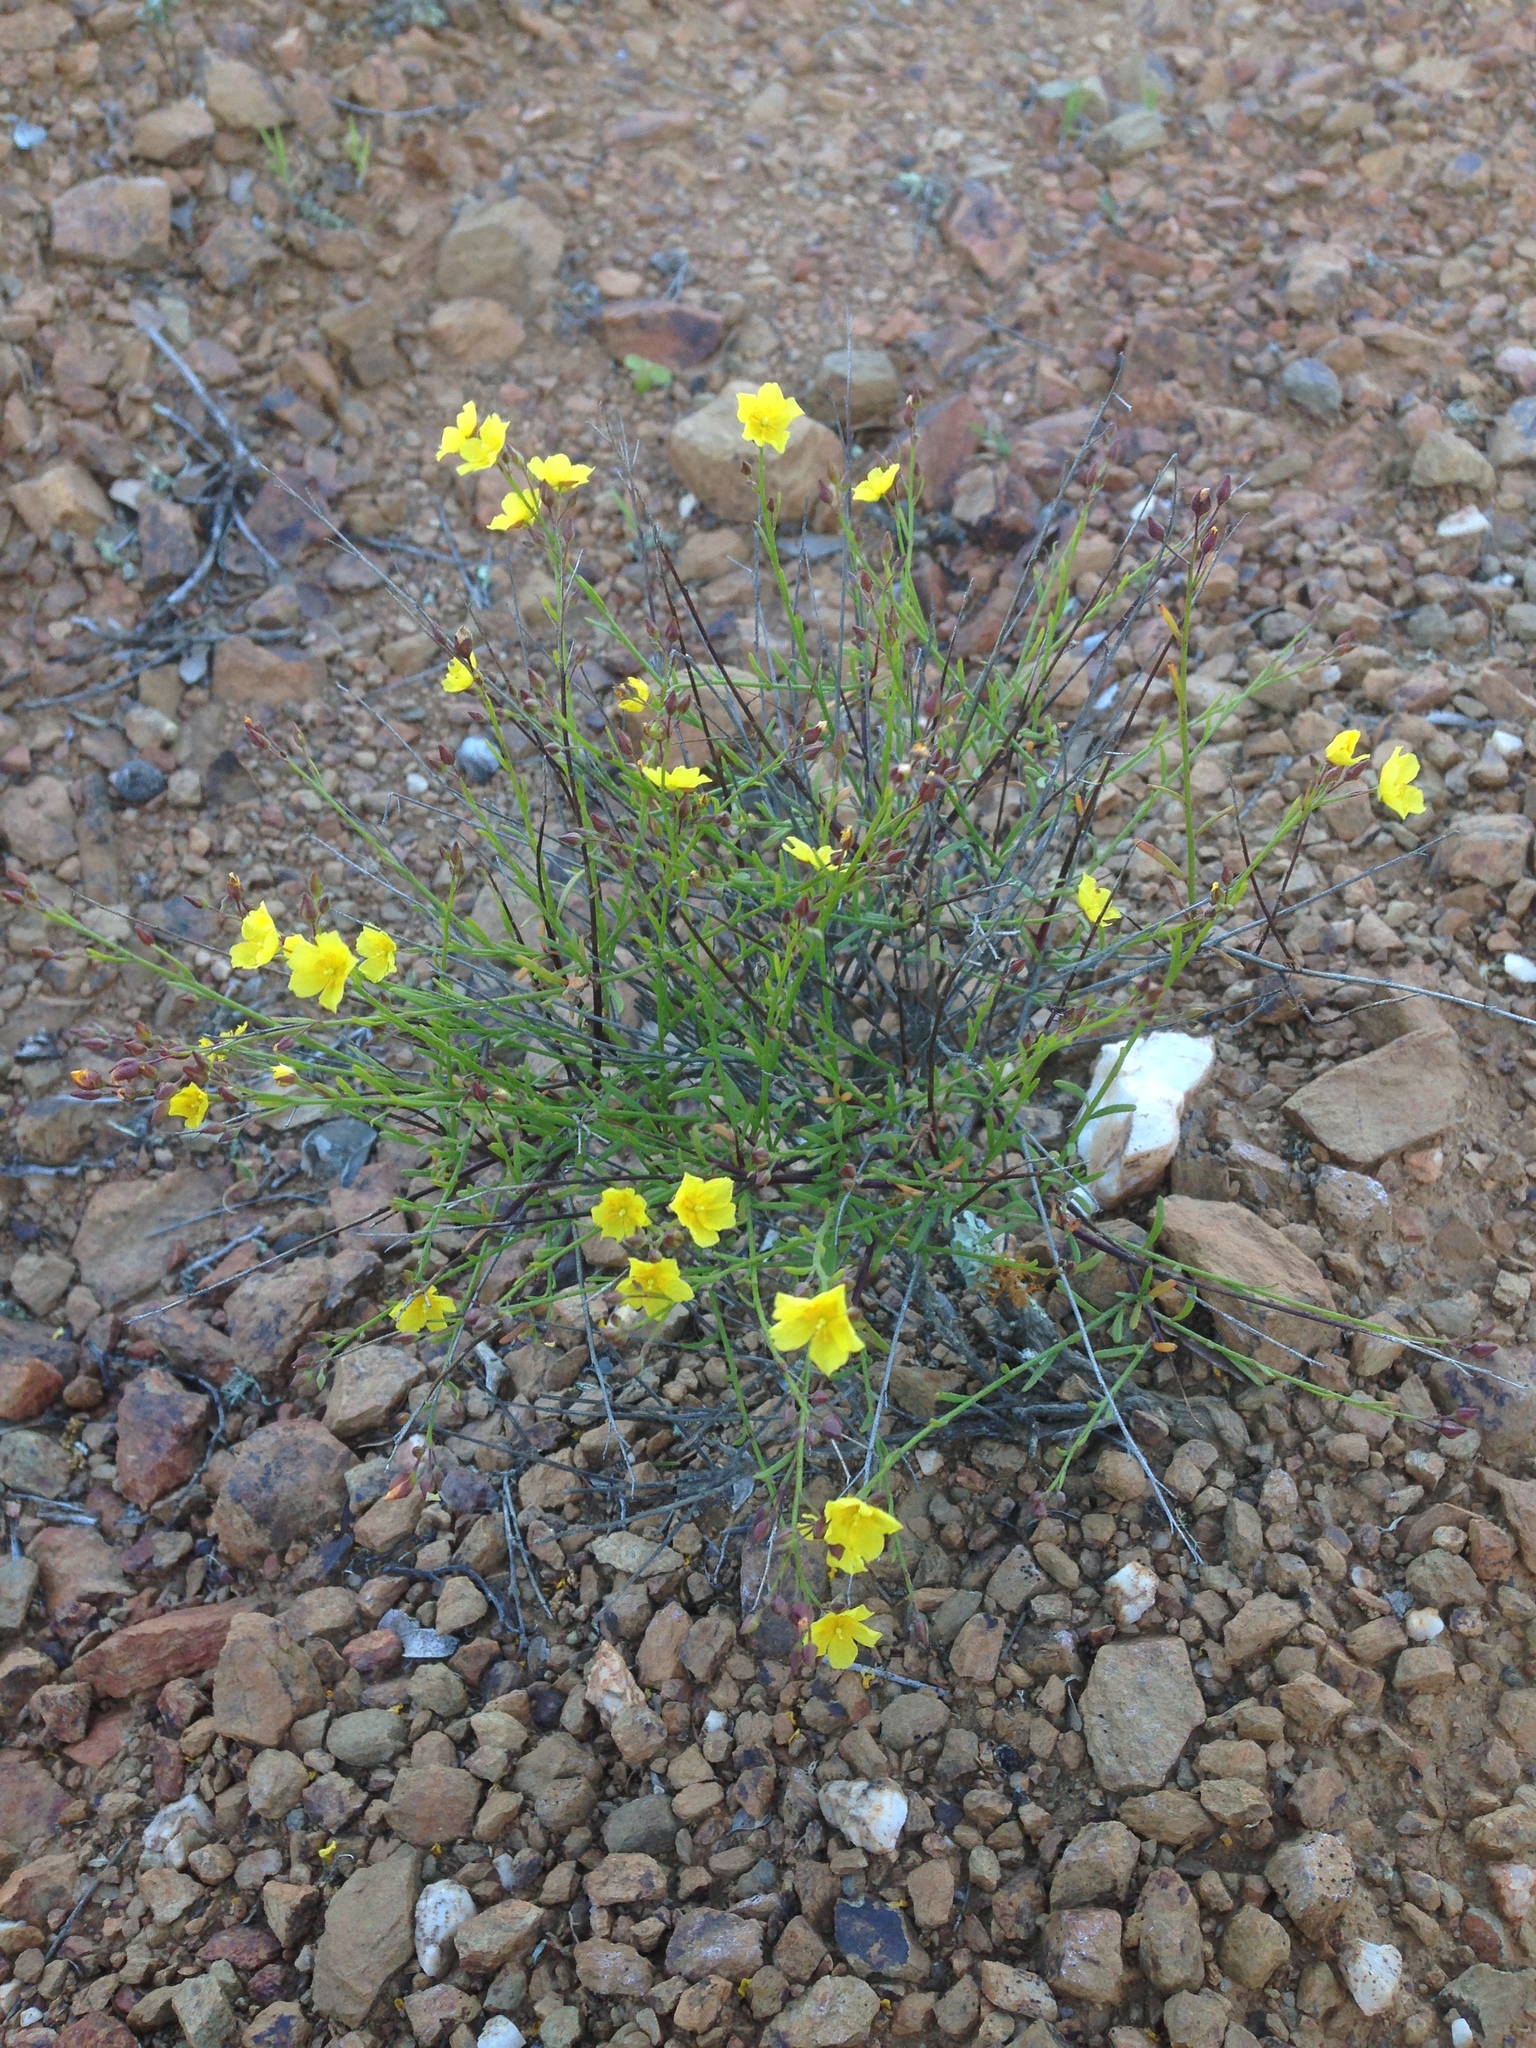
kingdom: Plantae
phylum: Tracheophyta
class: Magnoliopsida
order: Malvales
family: Cistaceae
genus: Crocanthemum
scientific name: Crocanthemum scoparium
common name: Broom-rose
